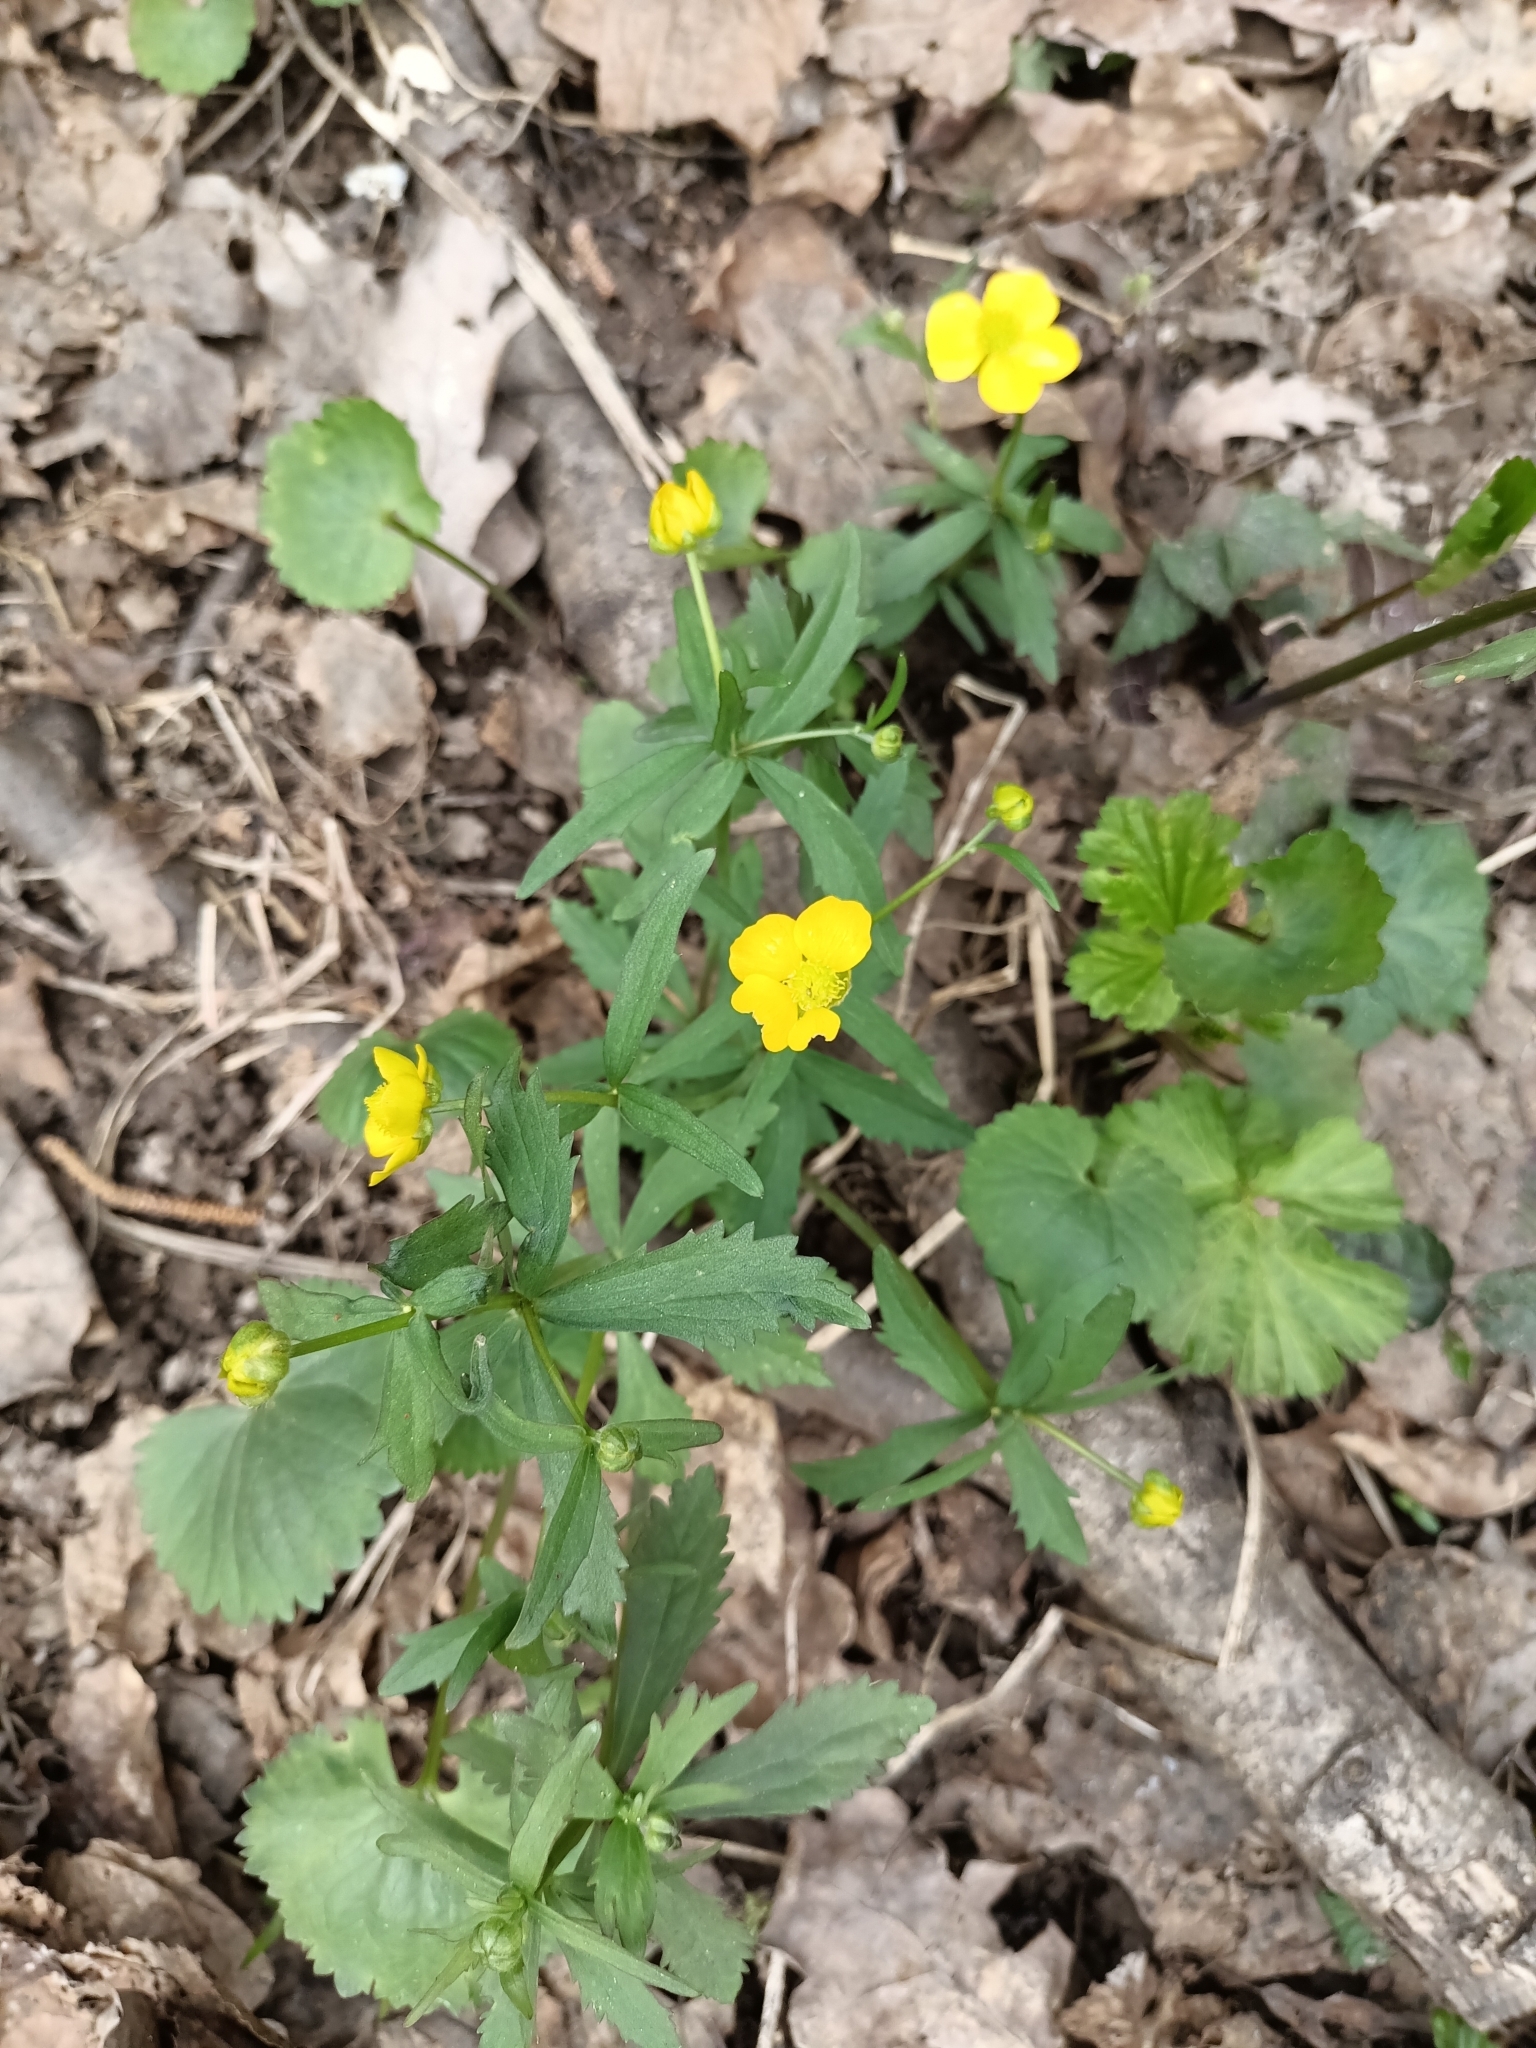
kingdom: Plantae
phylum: Tracheophyta
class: Magnoliopsida
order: Ranunculales
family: Ranunculaceae
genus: Ranunculus
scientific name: Ranunculus cassubicus
